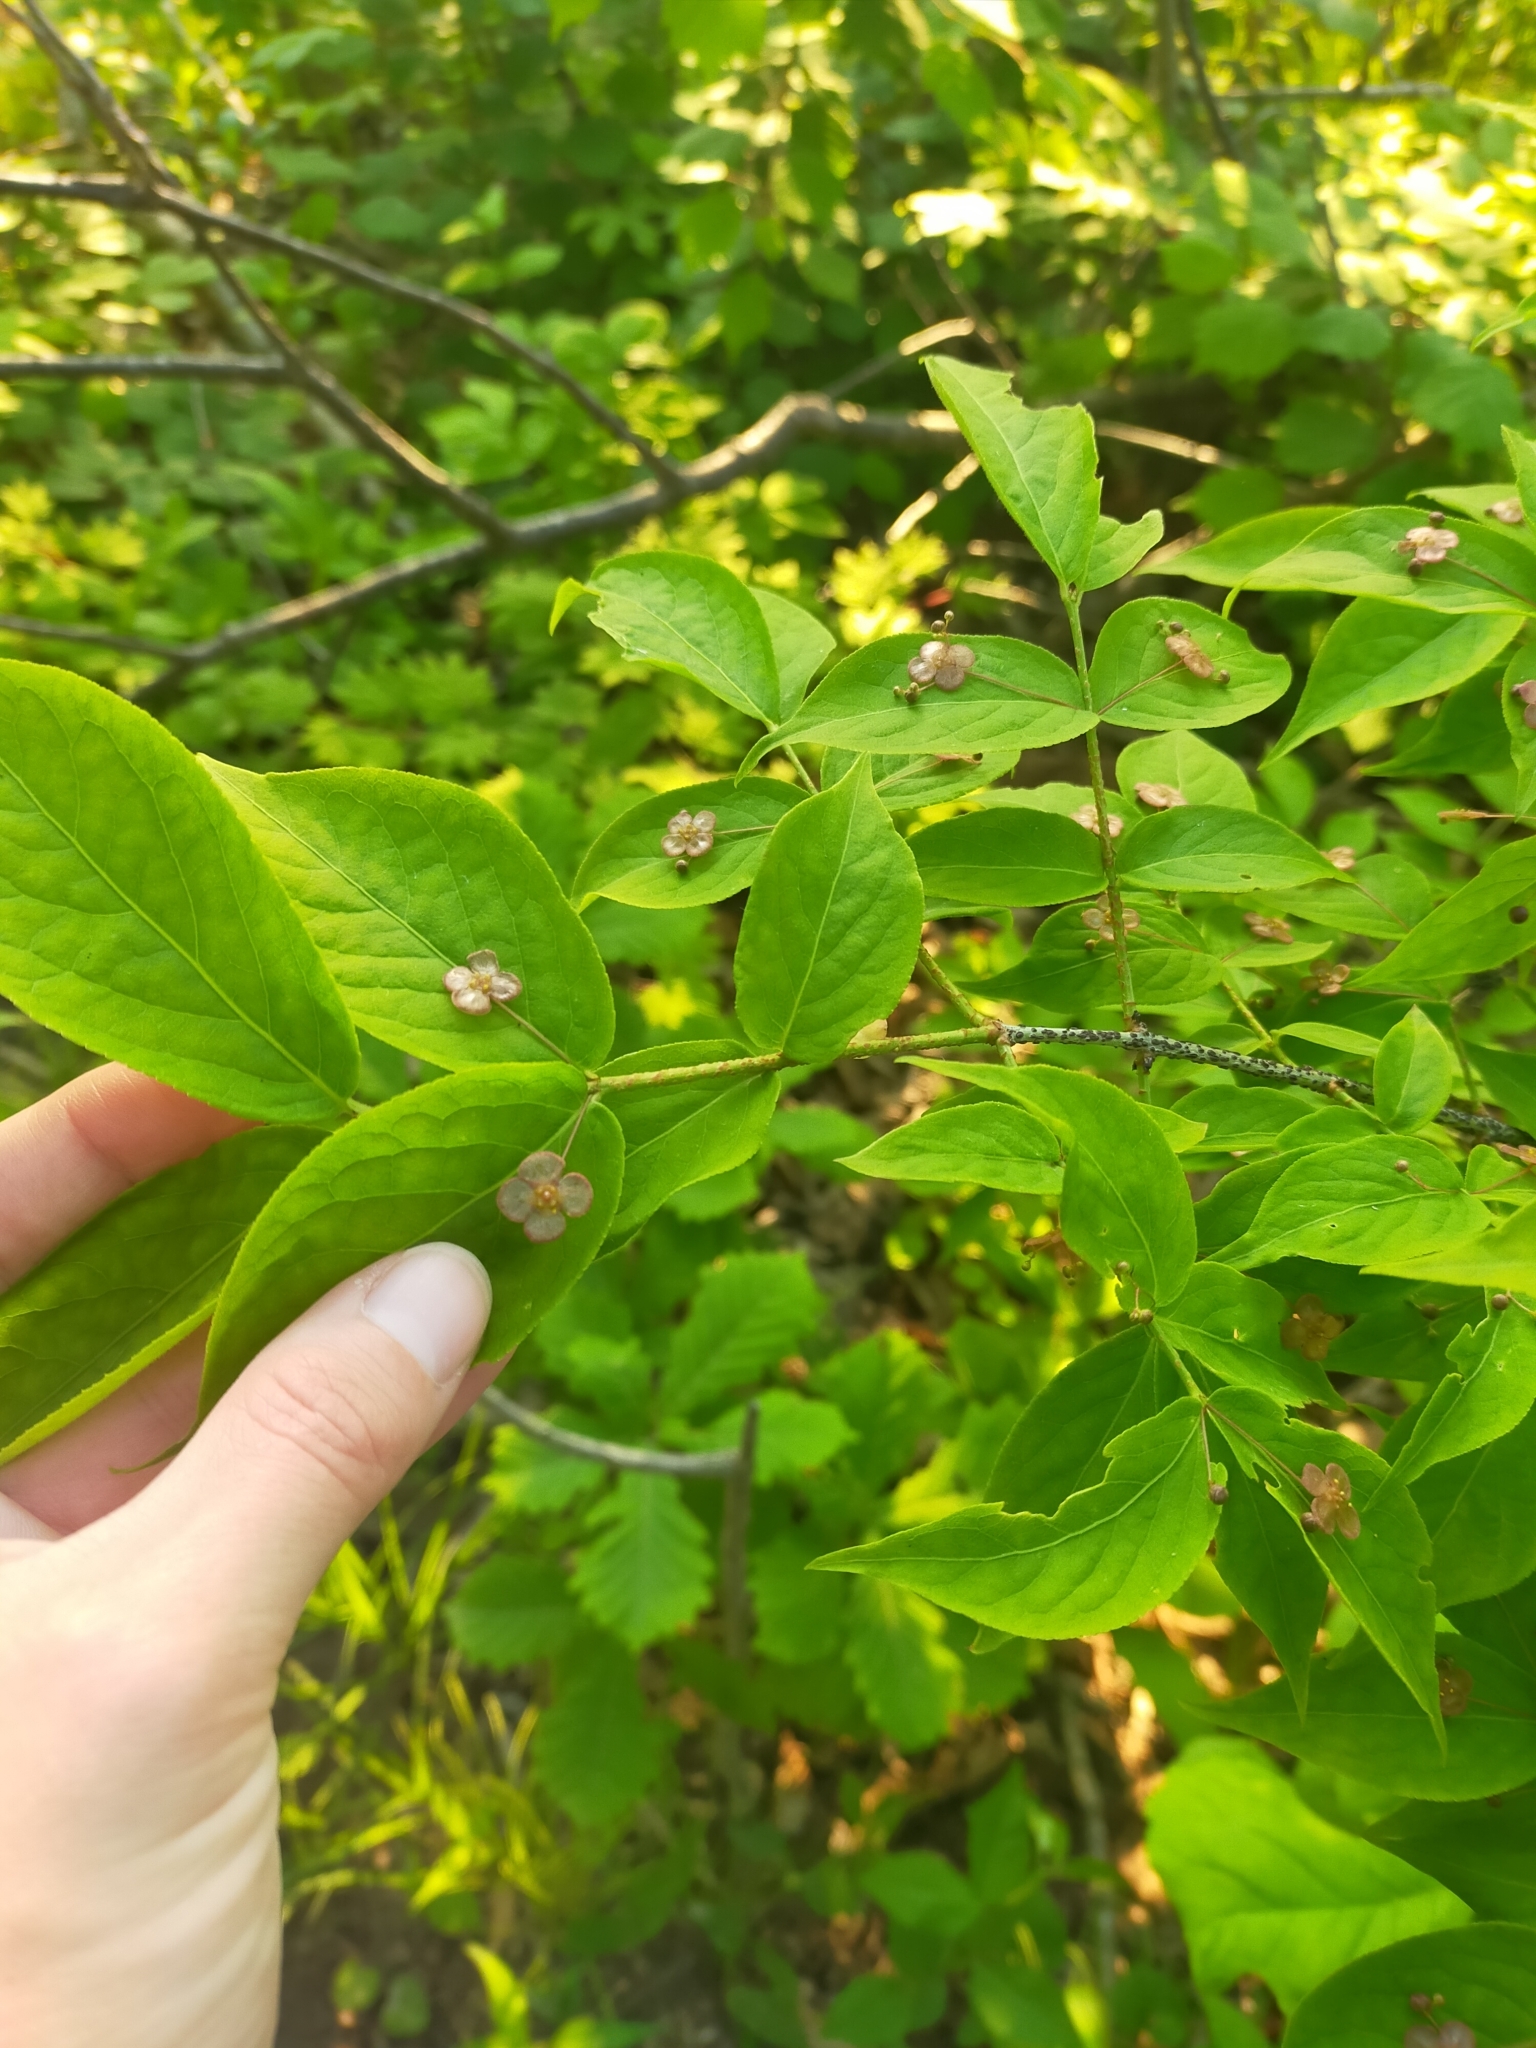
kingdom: Plantae
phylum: Tracheophyta
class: Magnoliopsida
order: Celastrales
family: Celastraceae
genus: Euonymus
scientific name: Euonymus verrucosus
